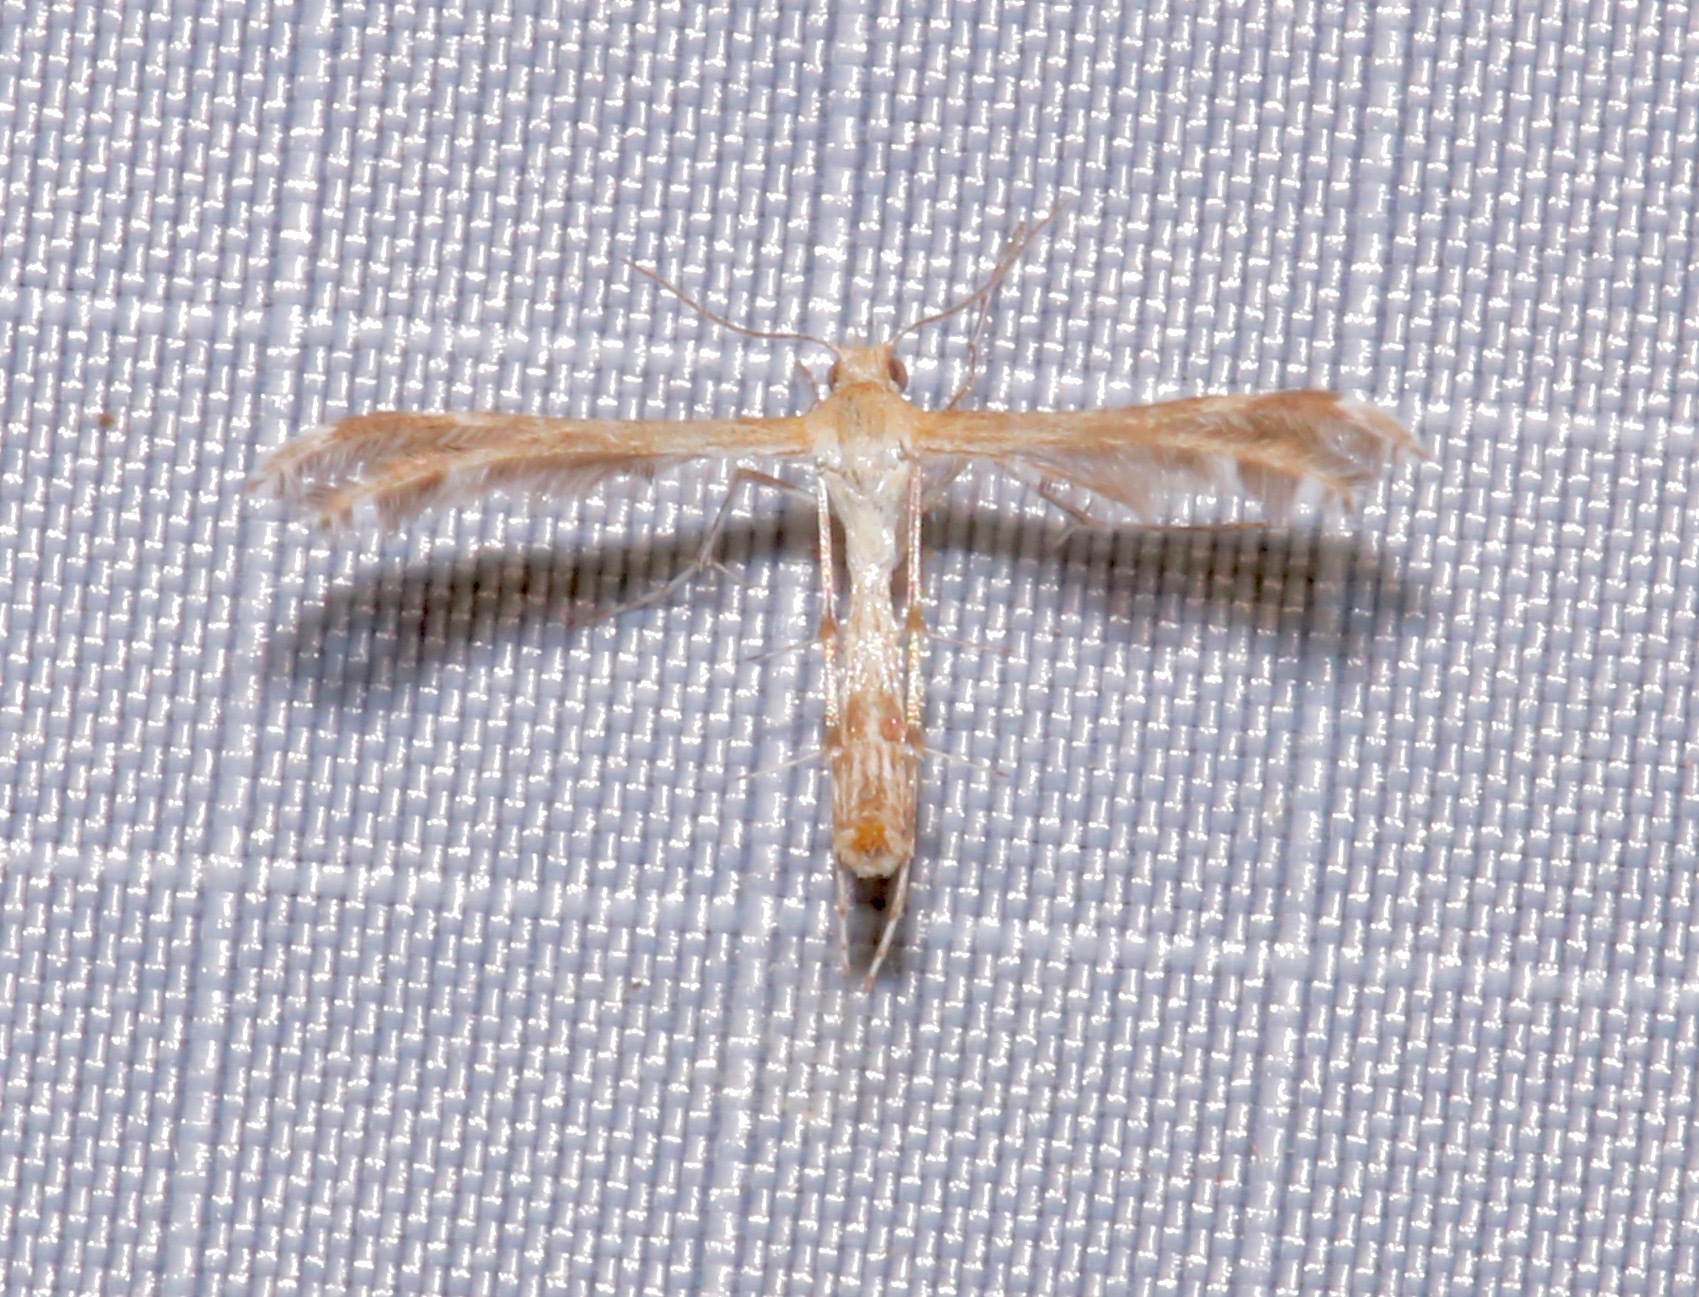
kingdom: Animalia
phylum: Arthropoda
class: Insecta
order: Lepidoptera
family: Pterophoridae
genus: Dejongia
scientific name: Dejongia californicus
